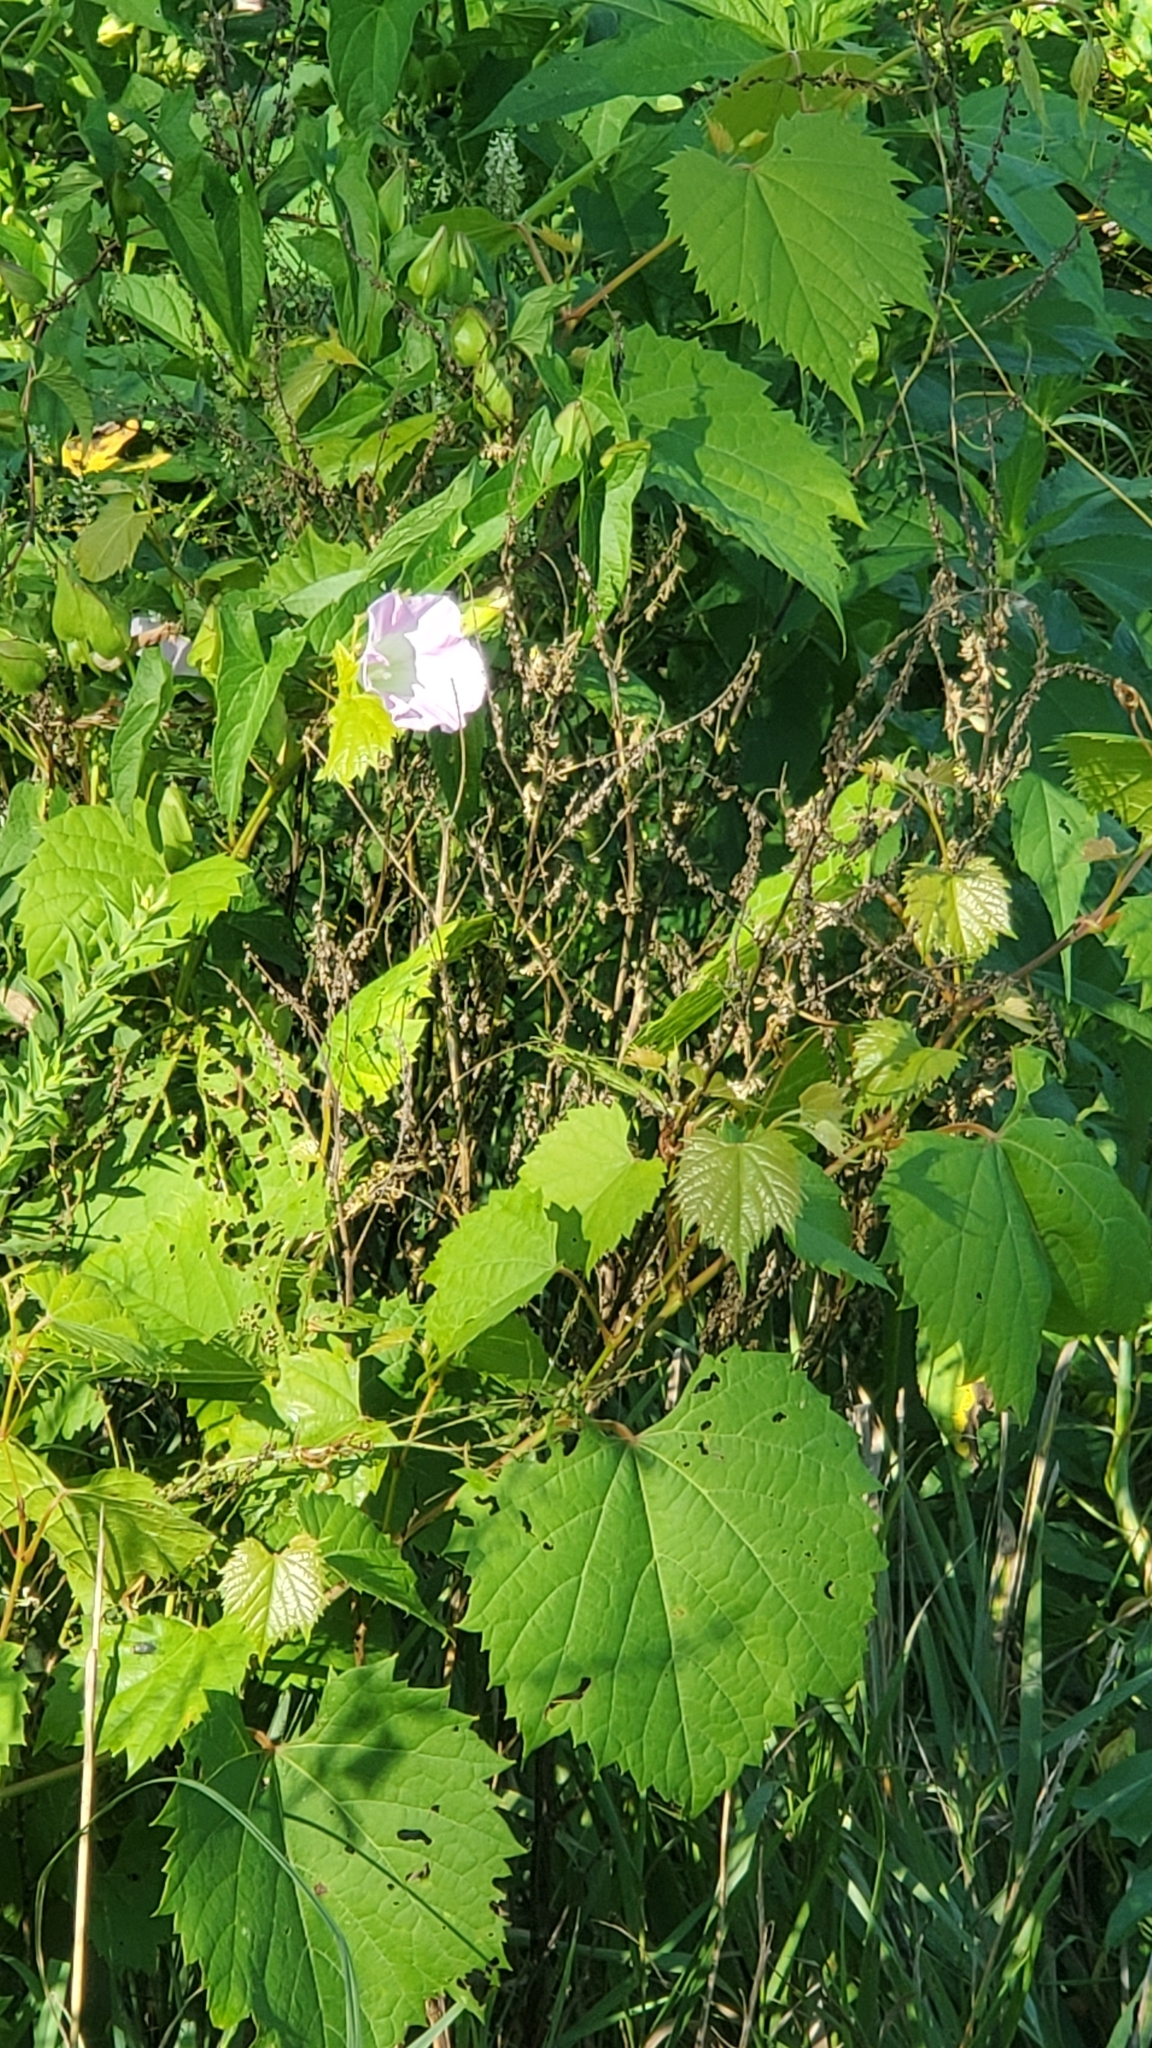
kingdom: Plantae
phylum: Tracheophyta
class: Magnoliopsida
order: Solanales
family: Convolvulaceae
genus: Calystegia
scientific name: Calystegia sepium
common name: Hedge bindweed
